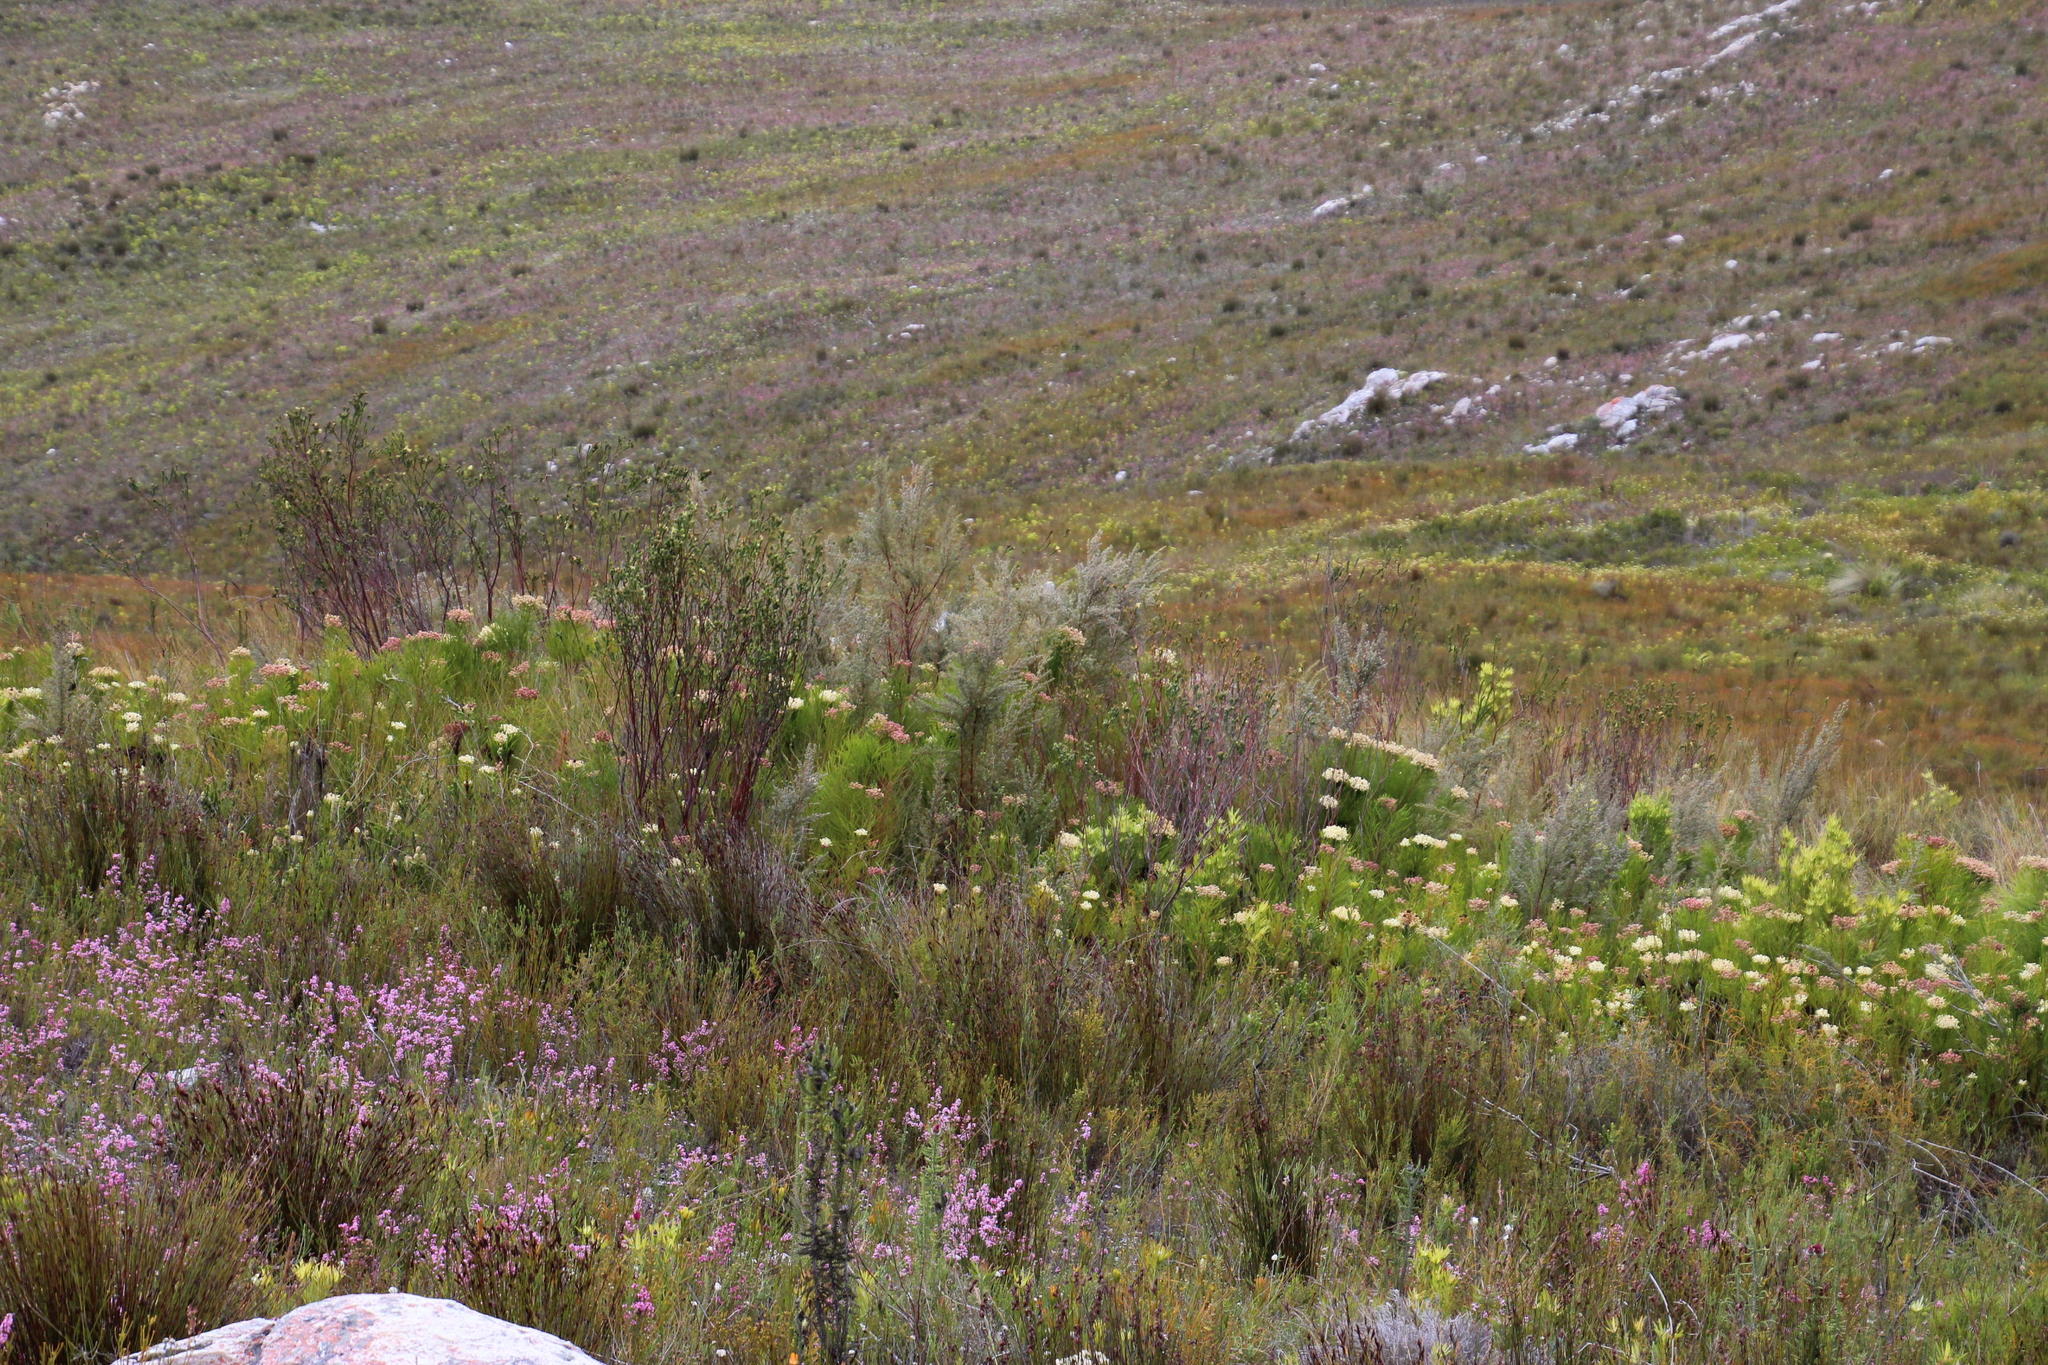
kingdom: Plantae
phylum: Tracheophyta
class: Magnoliopsida
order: Malvales
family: Thymelaeaceae
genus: Gnidia
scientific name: Gnidia oppositifolia
